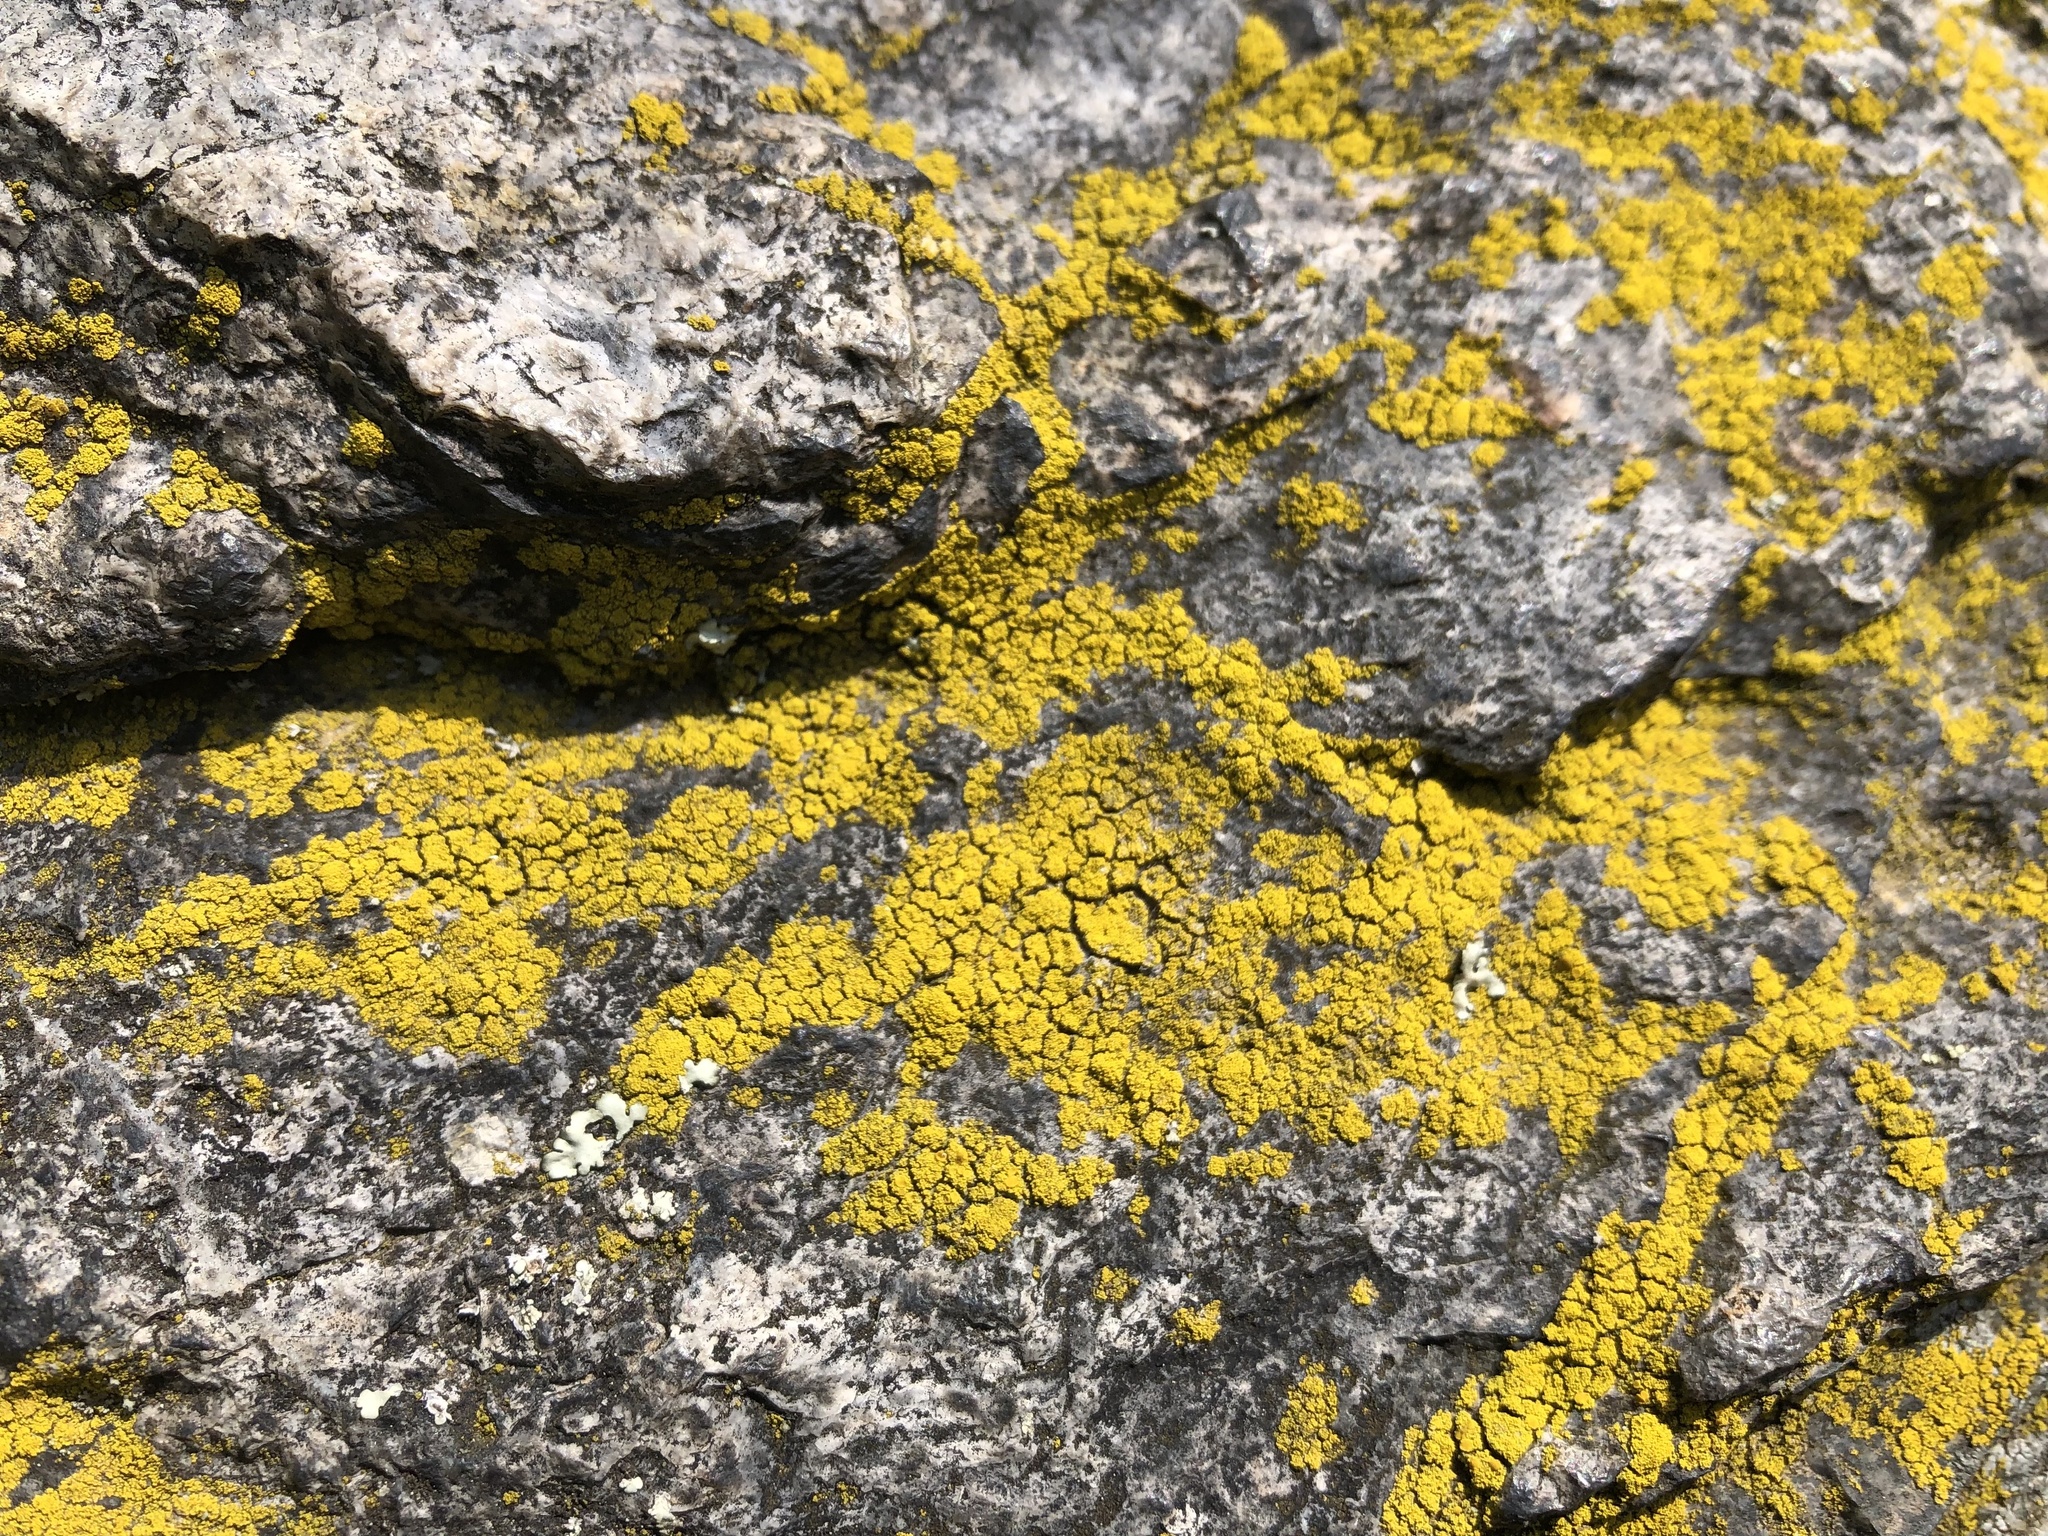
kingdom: Fungi
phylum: Ascomycota
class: Candelariomycetes
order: Candelariales
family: Candelariaceae
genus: Candelariella
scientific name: Candelariella vitellina
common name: Common goldspeck
